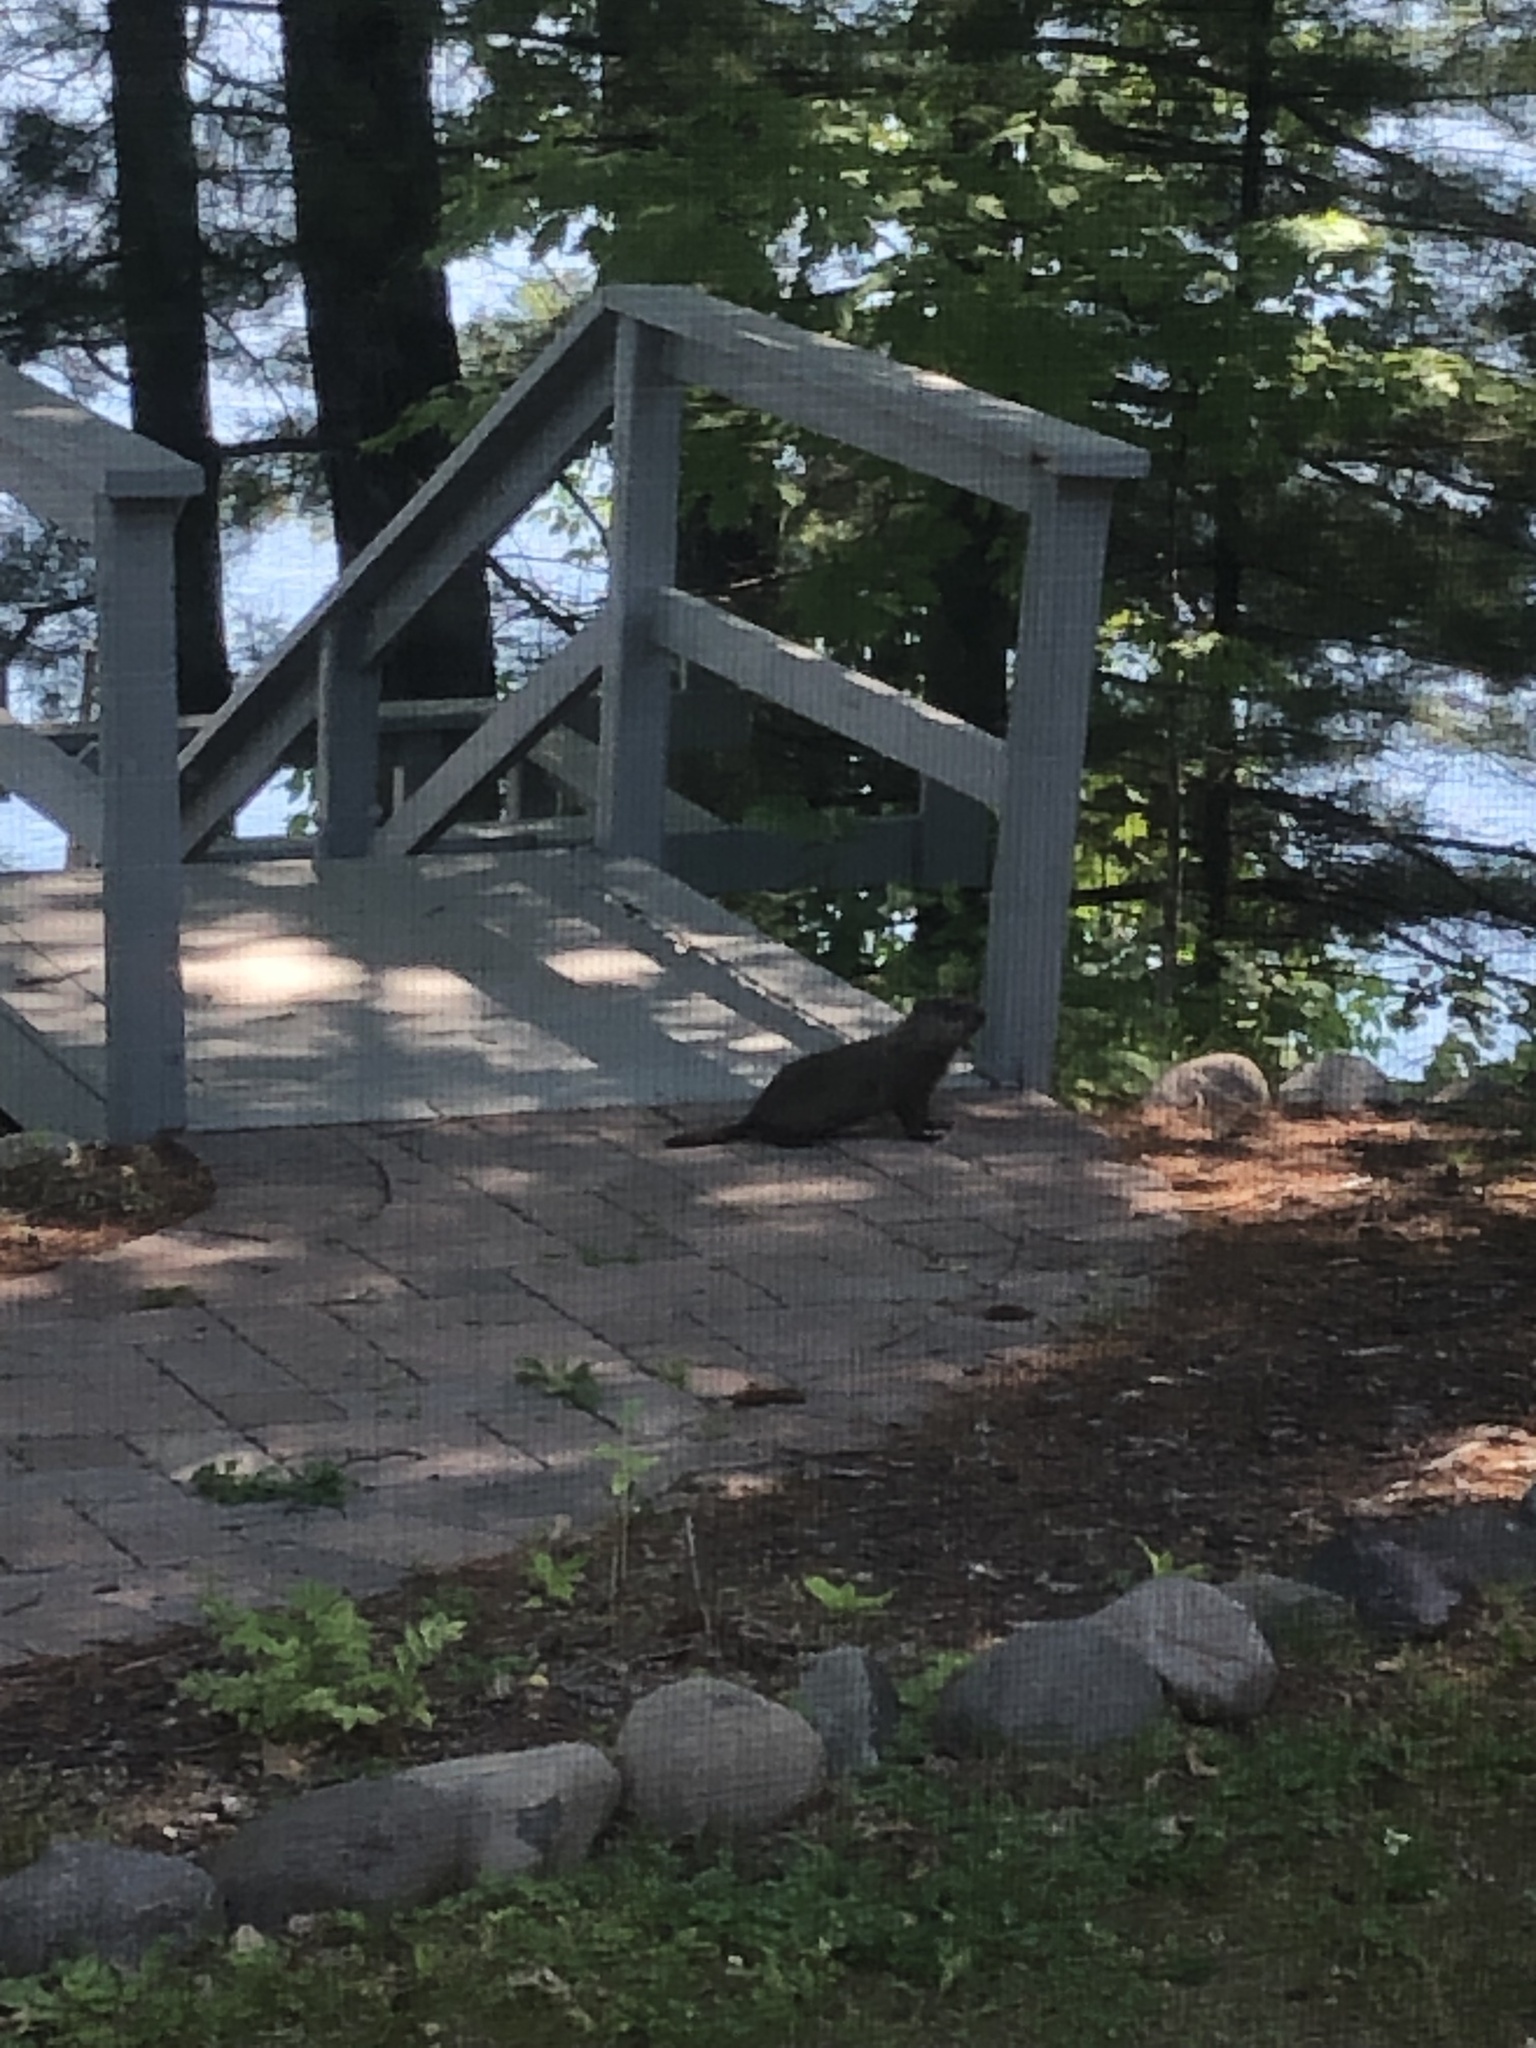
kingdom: Animalia
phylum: Chordata
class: Mammalia
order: Rodentia
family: Sciuridae
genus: Marmota
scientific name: Marmota monax
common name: Groundhog
